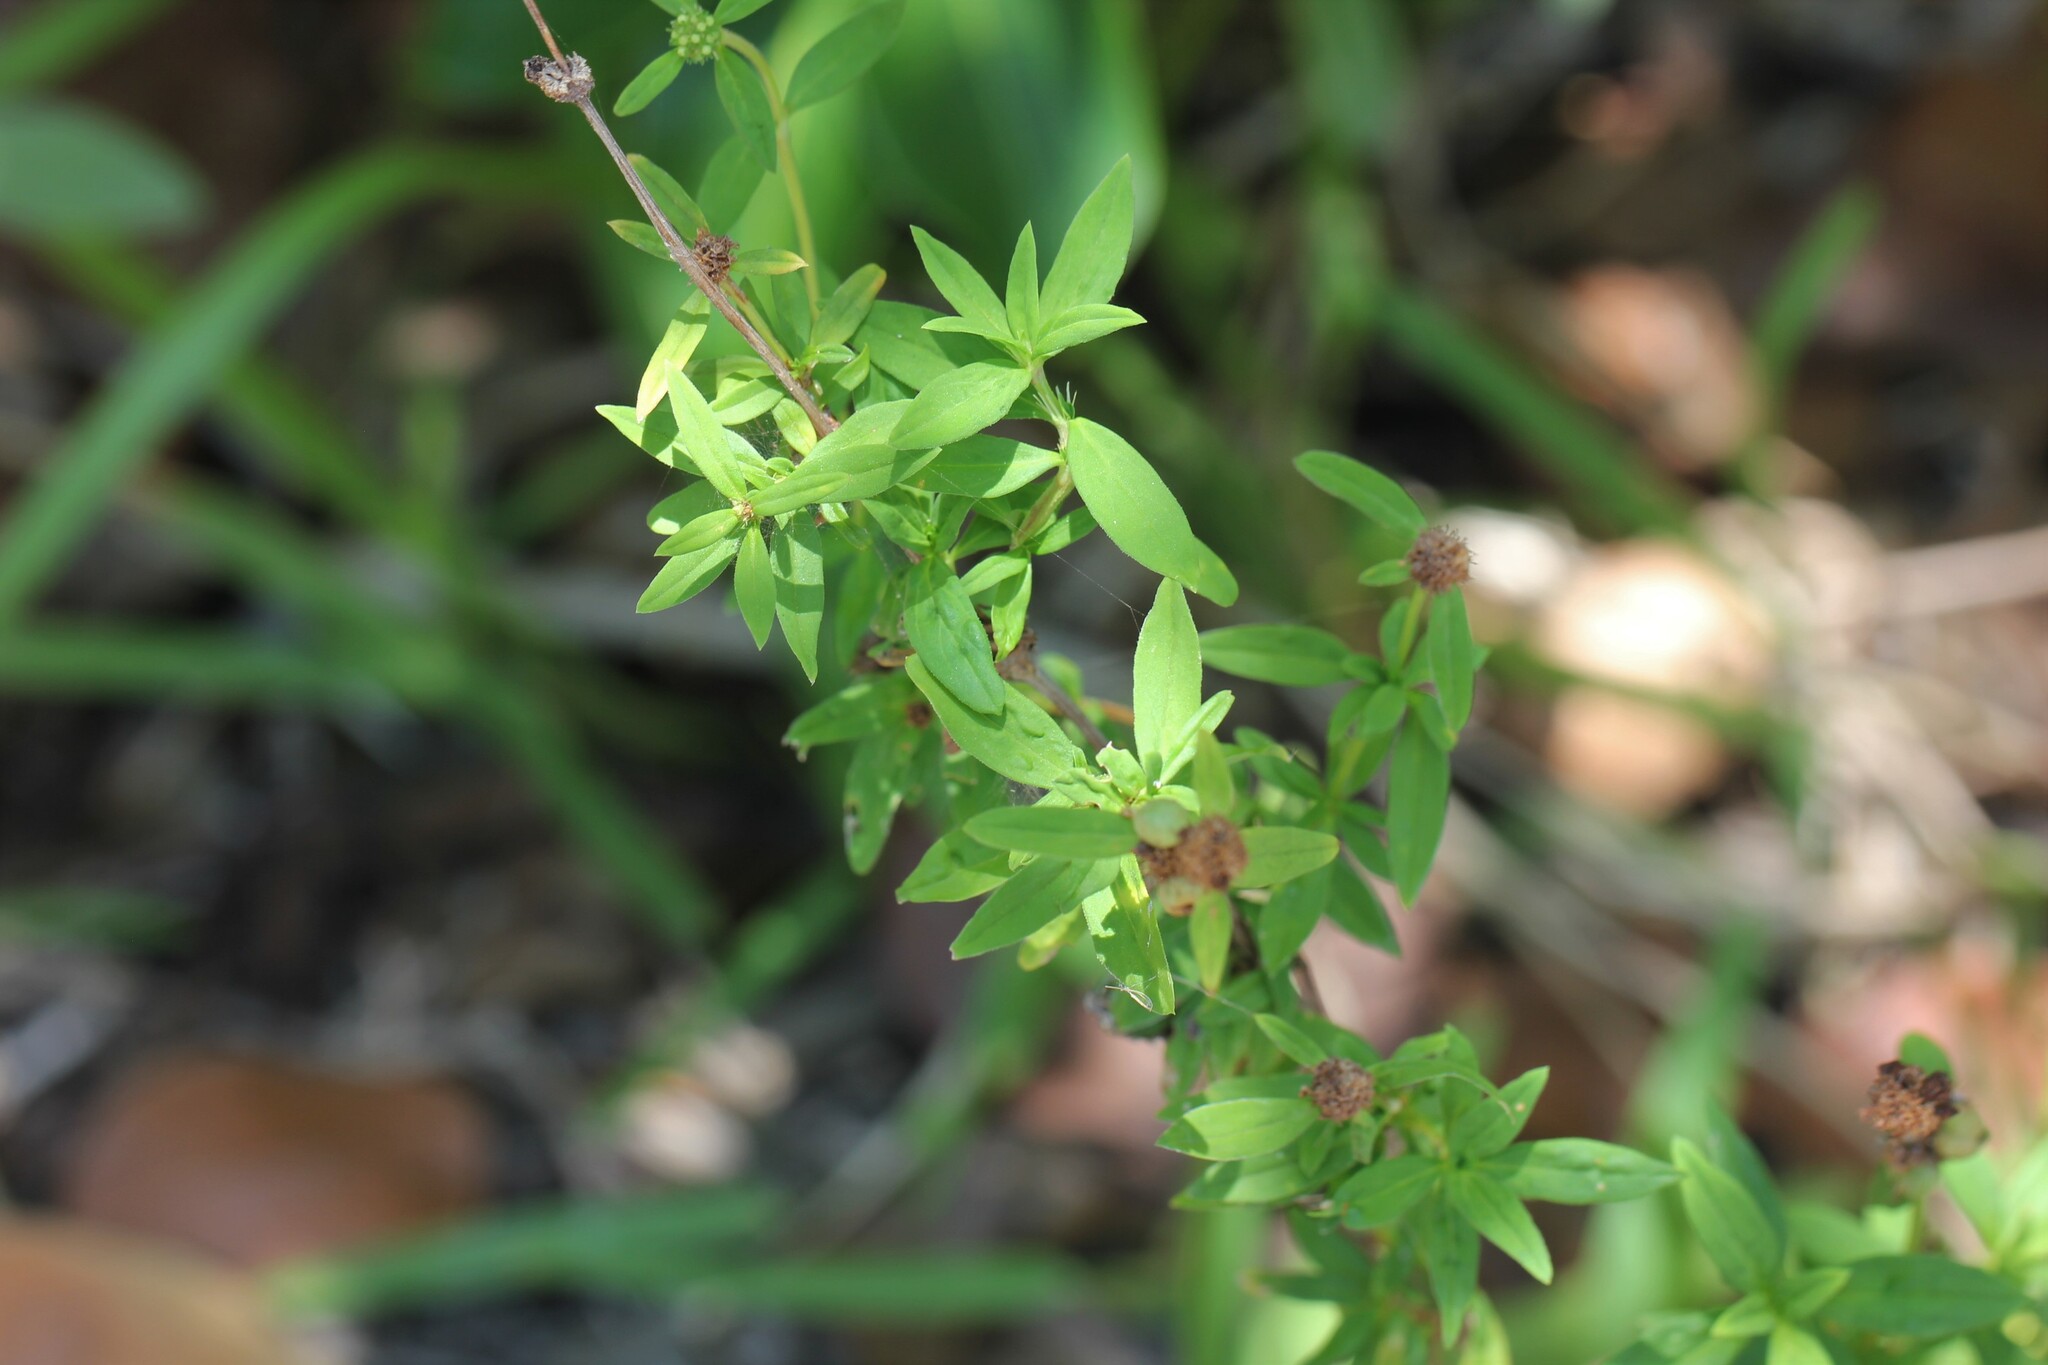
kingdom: Plantae
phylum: Tracheophyta
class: Magnoliopsida
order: Gentianales
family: Rubiaceae
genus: Spermacoce
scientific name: Spermacoce verticillata
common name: Shrubby false buttonweed
